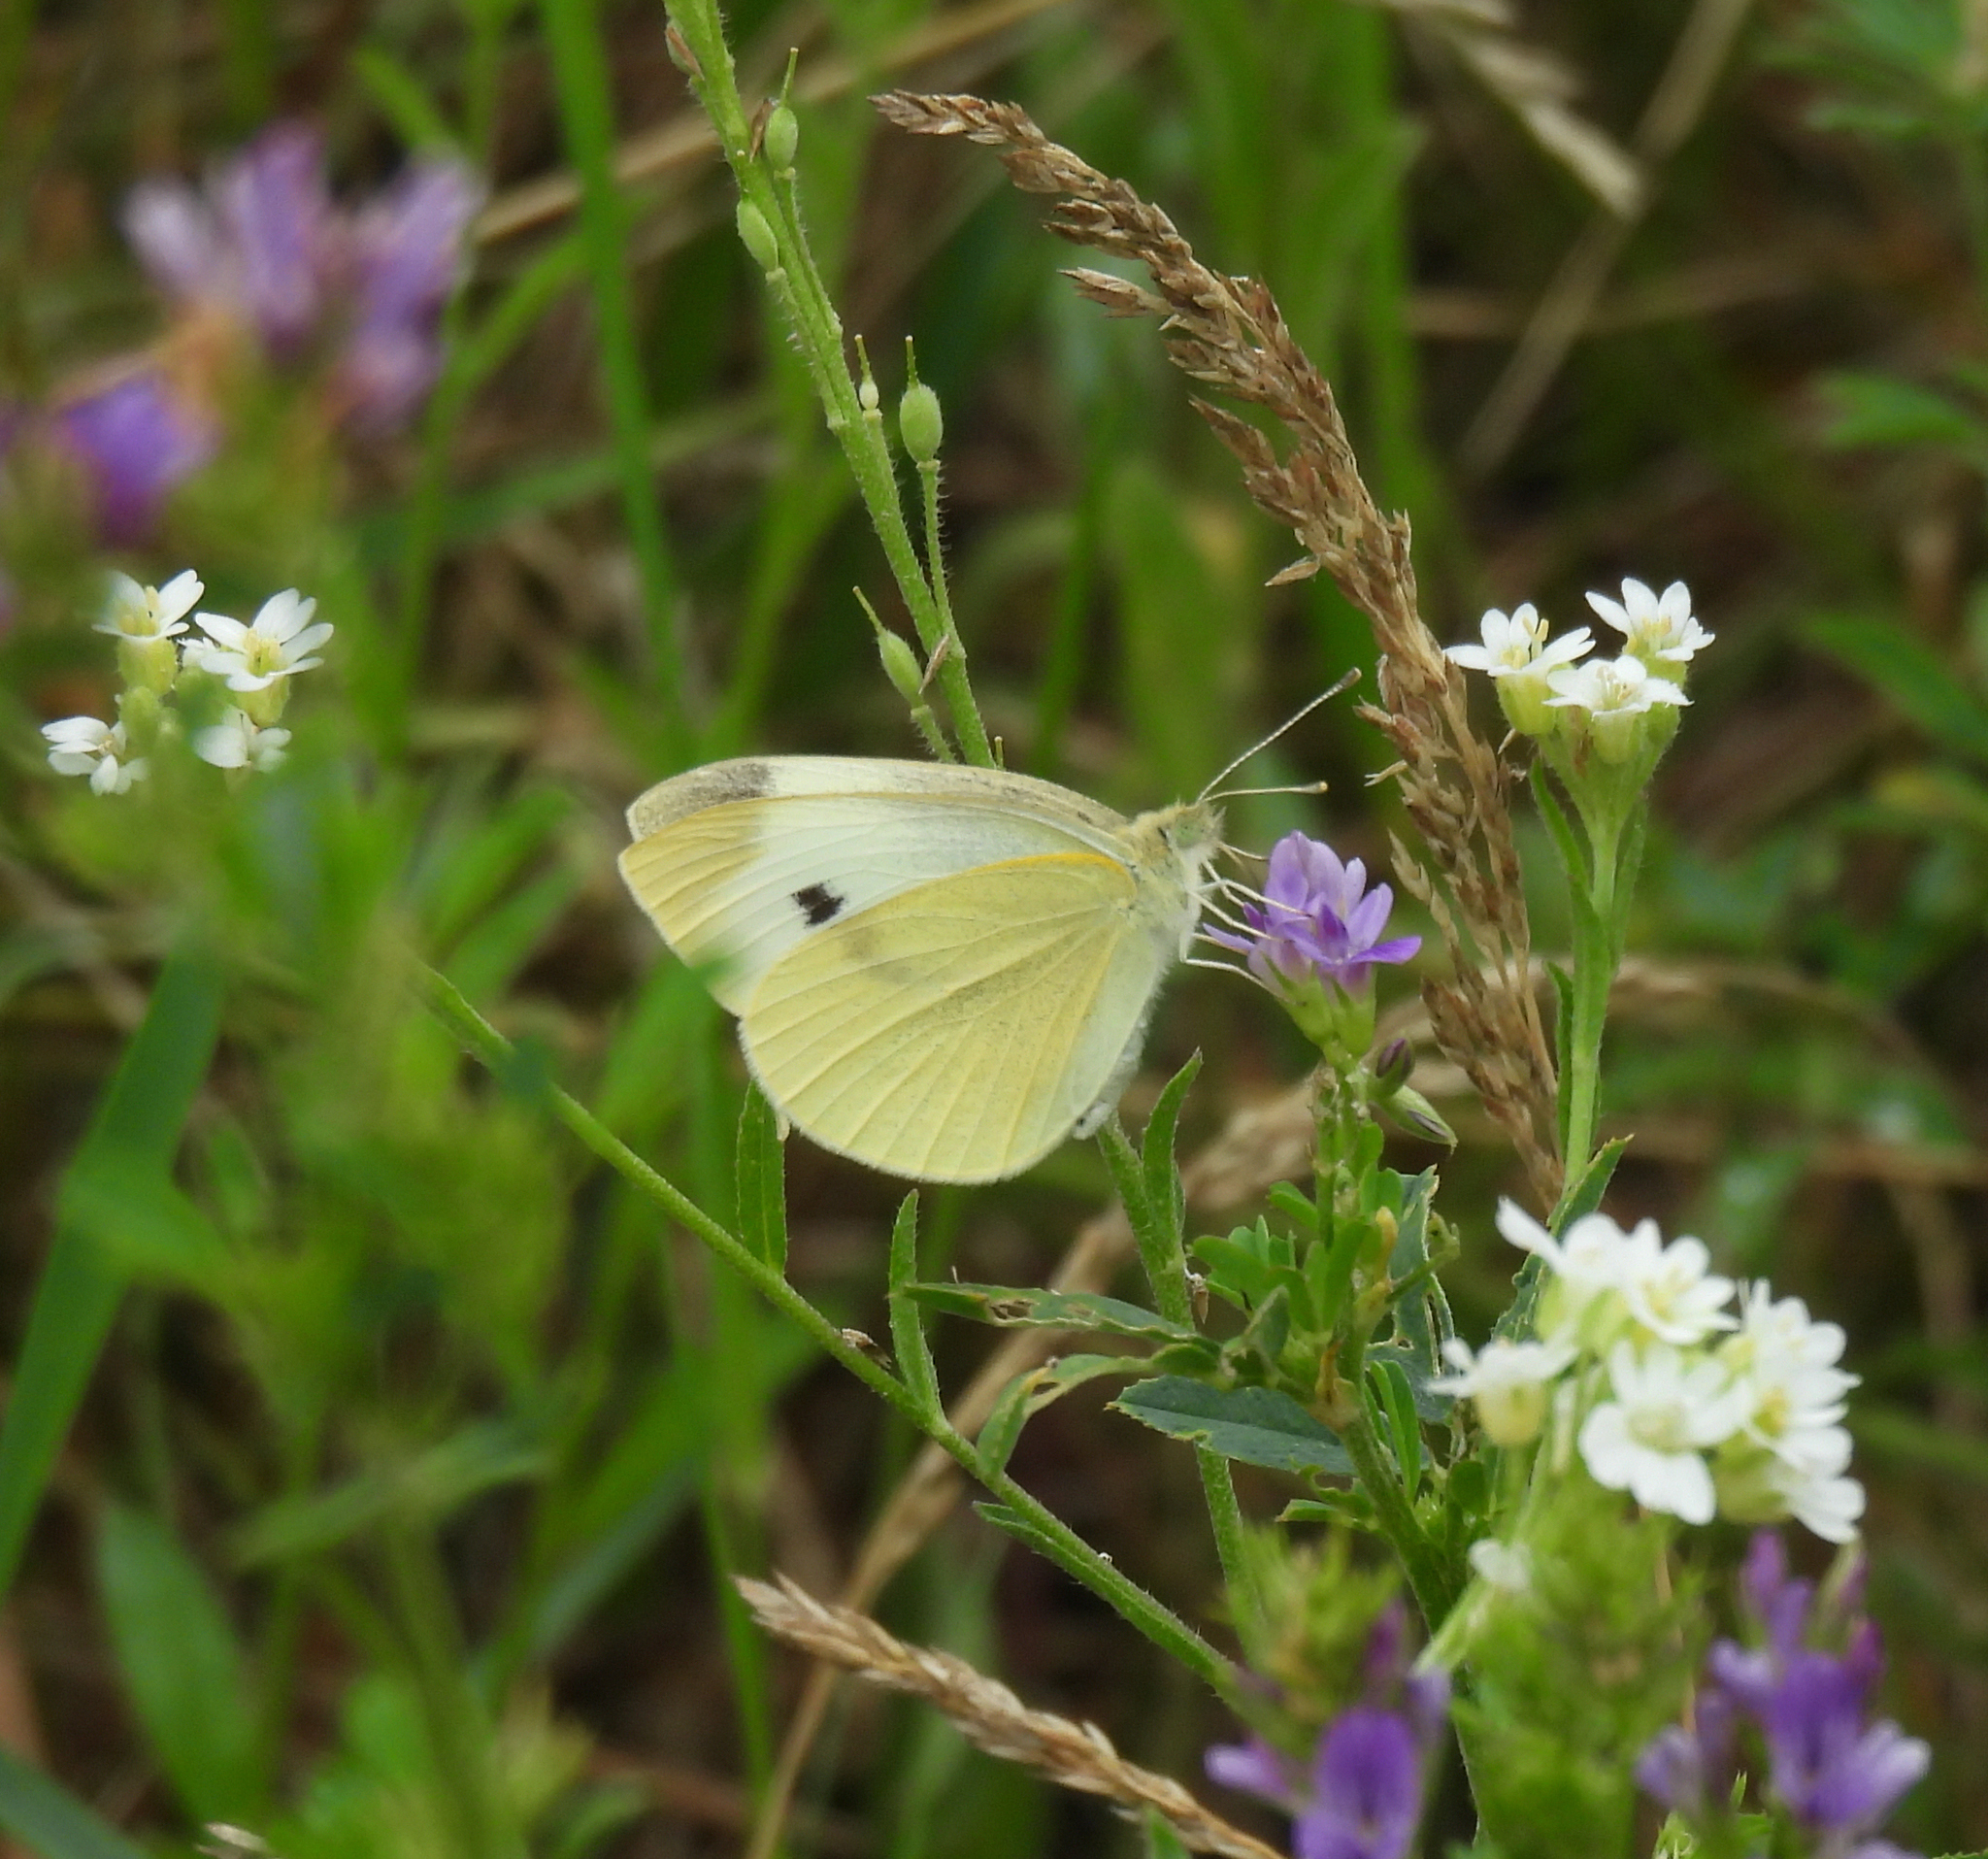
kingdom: Animalia
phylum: Arthropoda
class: Insecta
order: Lepidoptera
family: Pieridae
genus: Pieris
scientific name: Pieris rapae
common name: Small white
